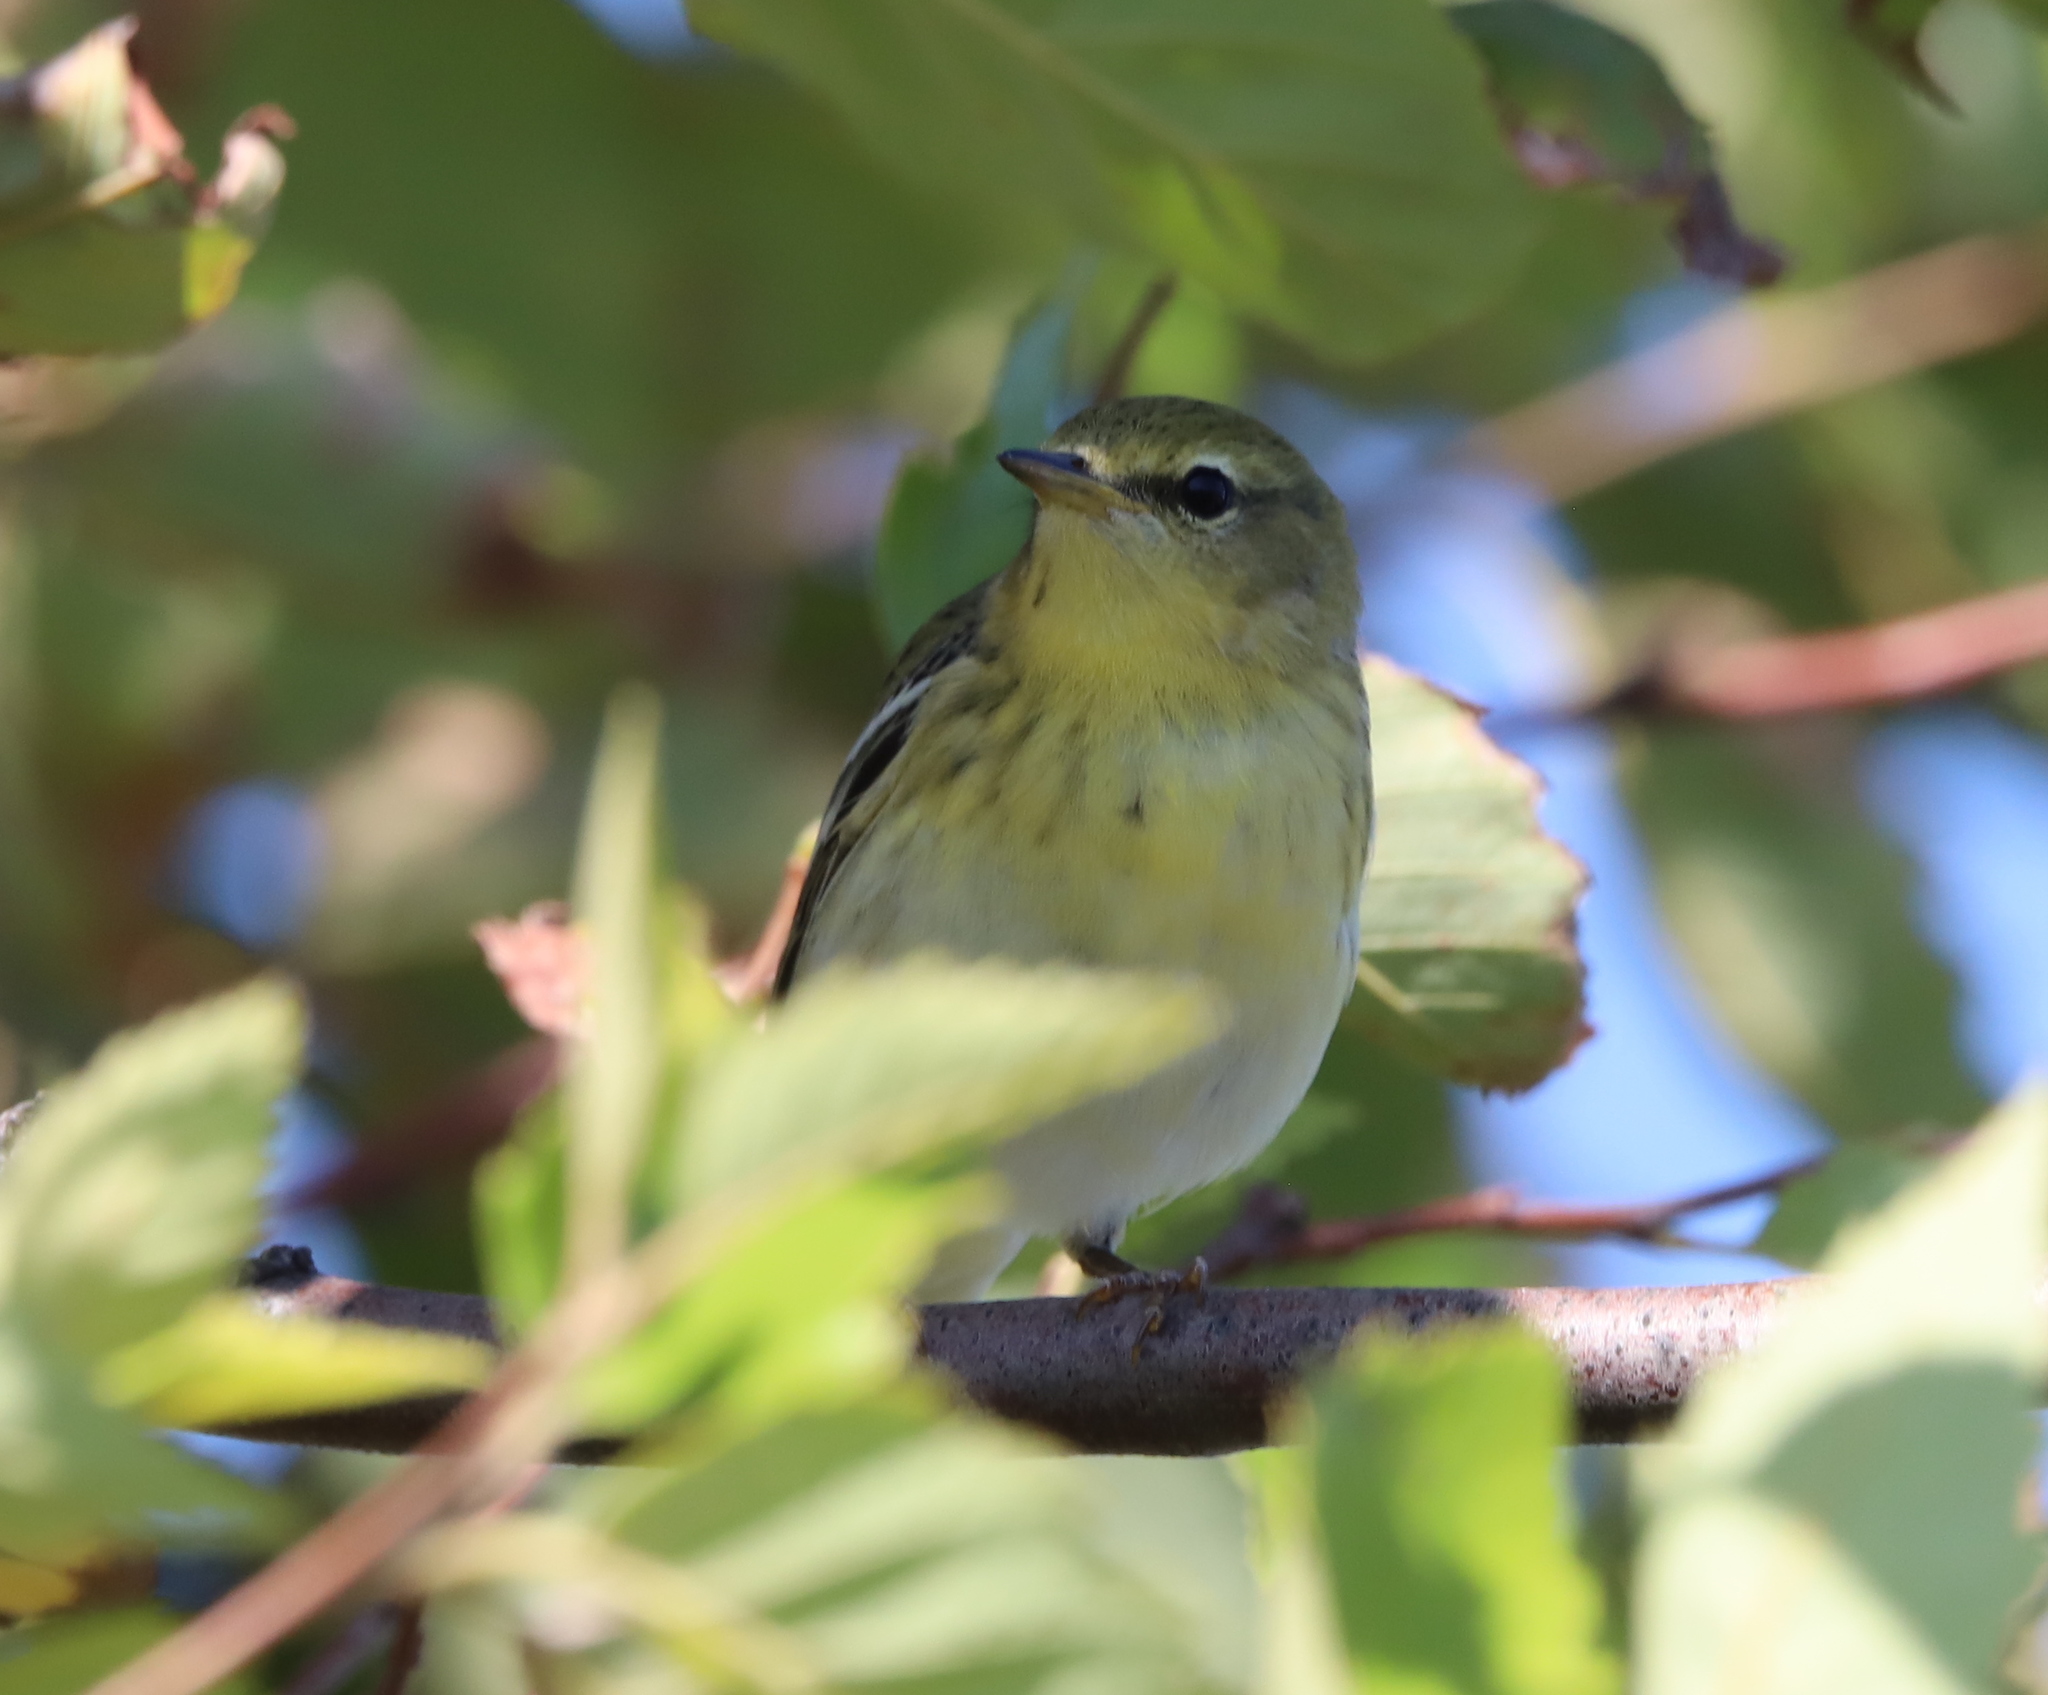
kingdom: Animalia
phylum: Chordata
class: Aves
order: Passeriformes
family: Parulidae
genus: Setophaga
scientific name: Setophaga striata
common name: Blackpoll warbler
